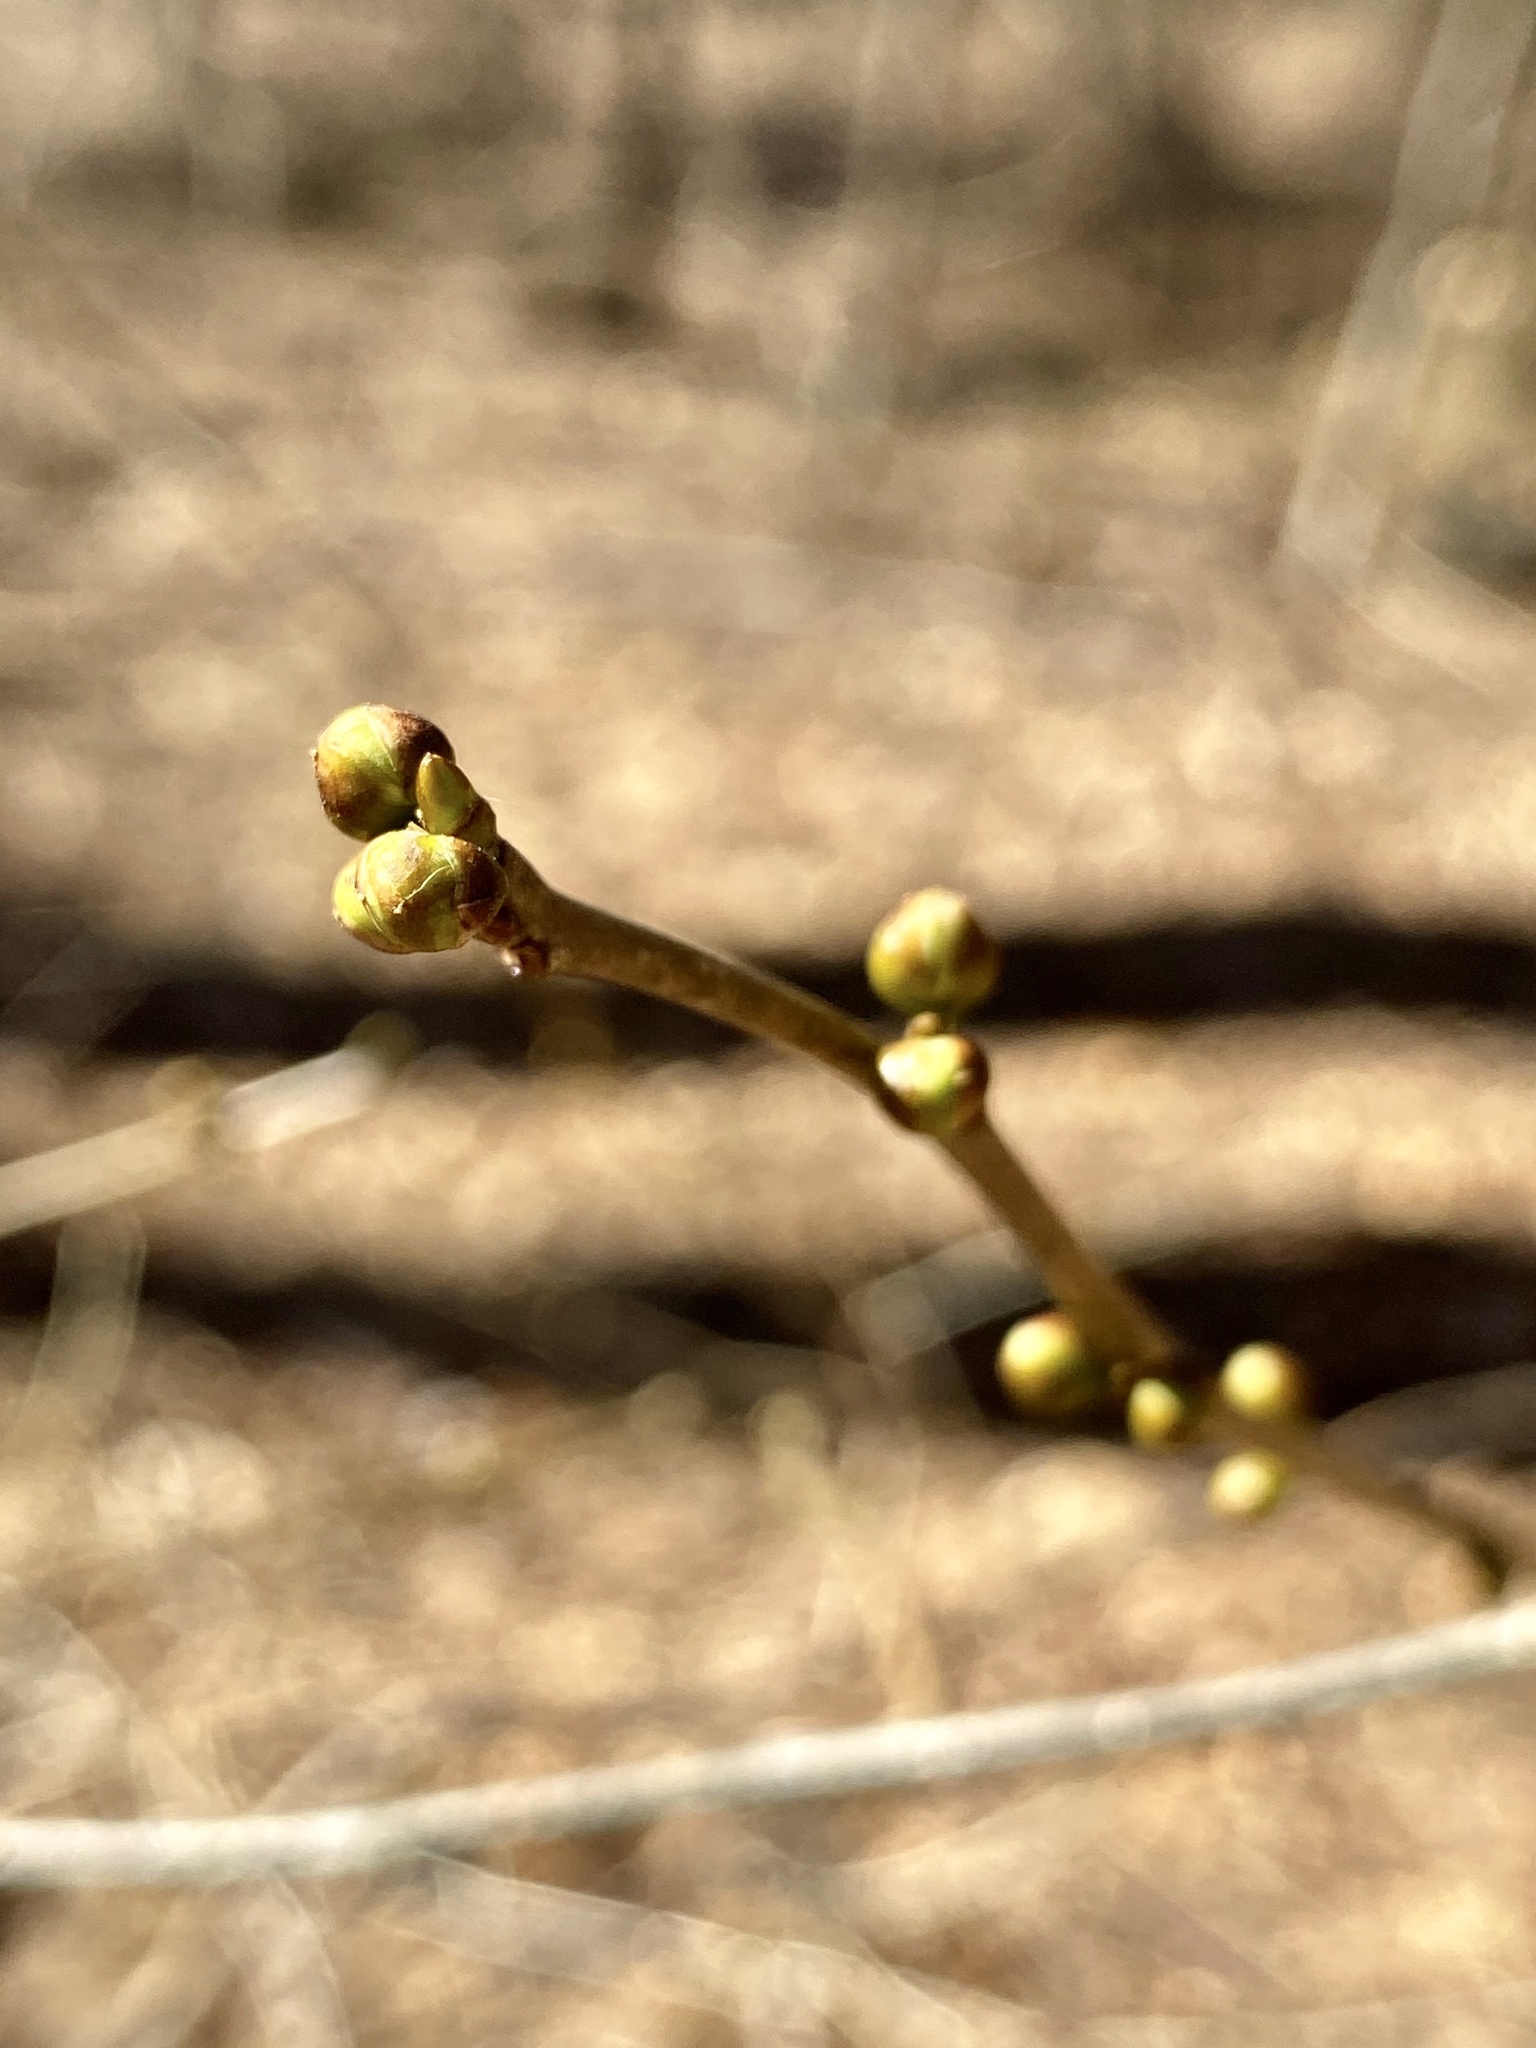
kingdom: Plantae
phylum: Tracheophyta
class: Magnoliopsida
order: Laurales
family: Lauraceae
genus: Lindera
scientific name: Lindera benzoin
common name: Spicebush
